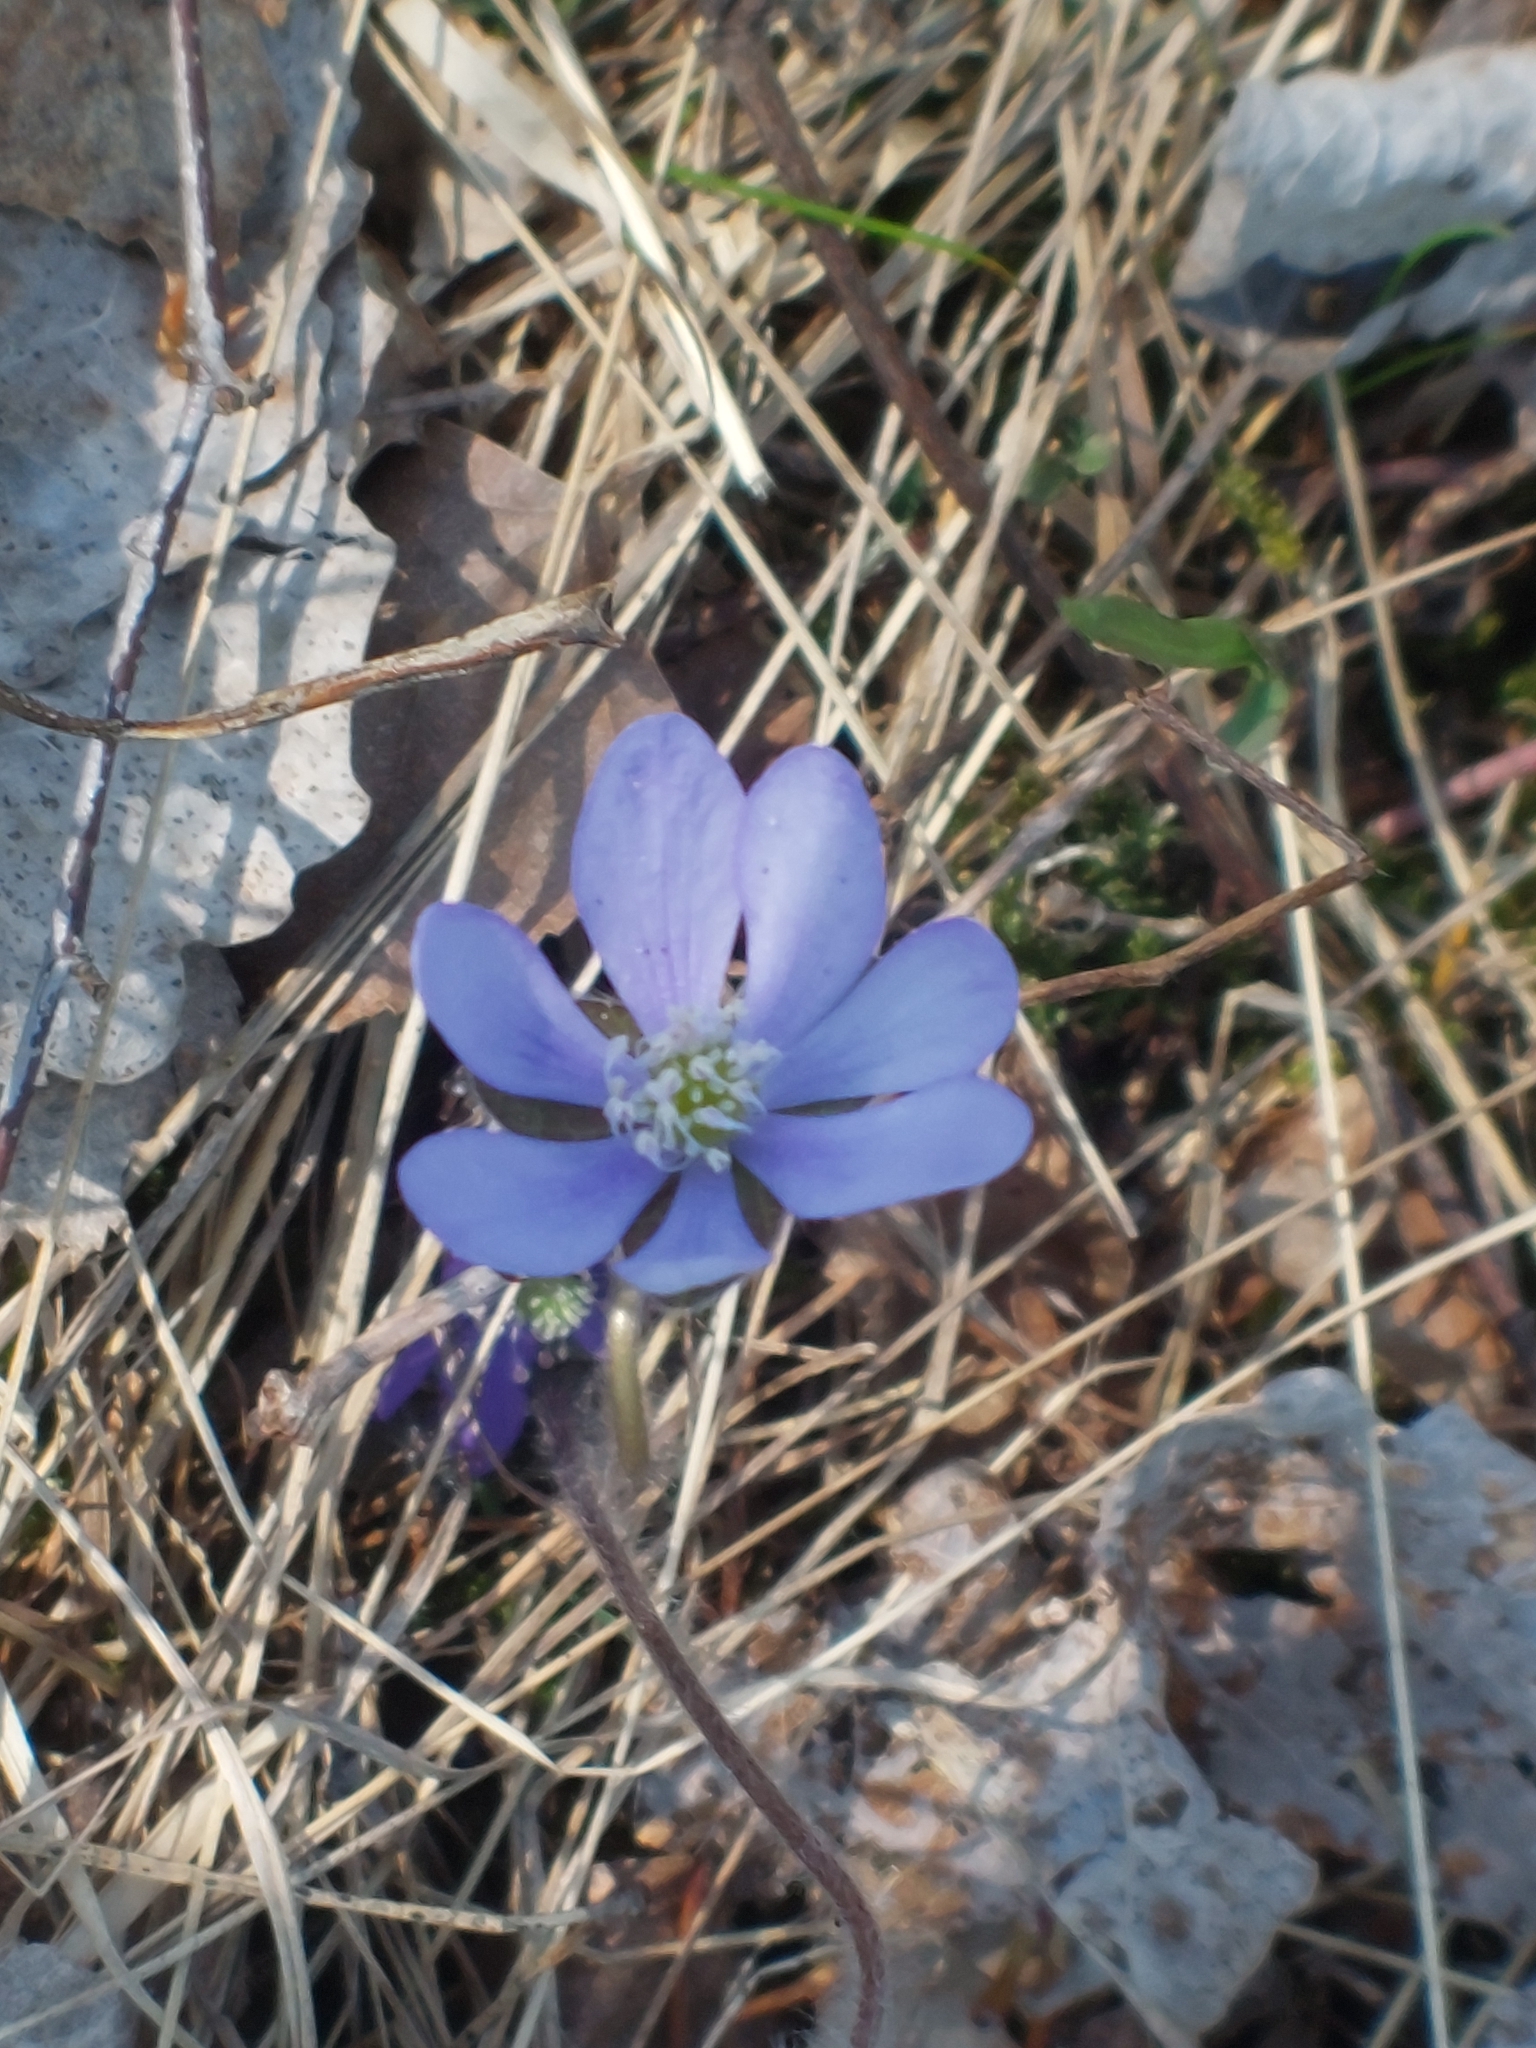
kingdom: Plantae
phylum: Tracheophyta
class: Magnoliopsida
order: Ranunculales
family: Ranunculaceae
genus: Hepatica
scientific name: Hepatica nobilis
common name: Liverleaf
